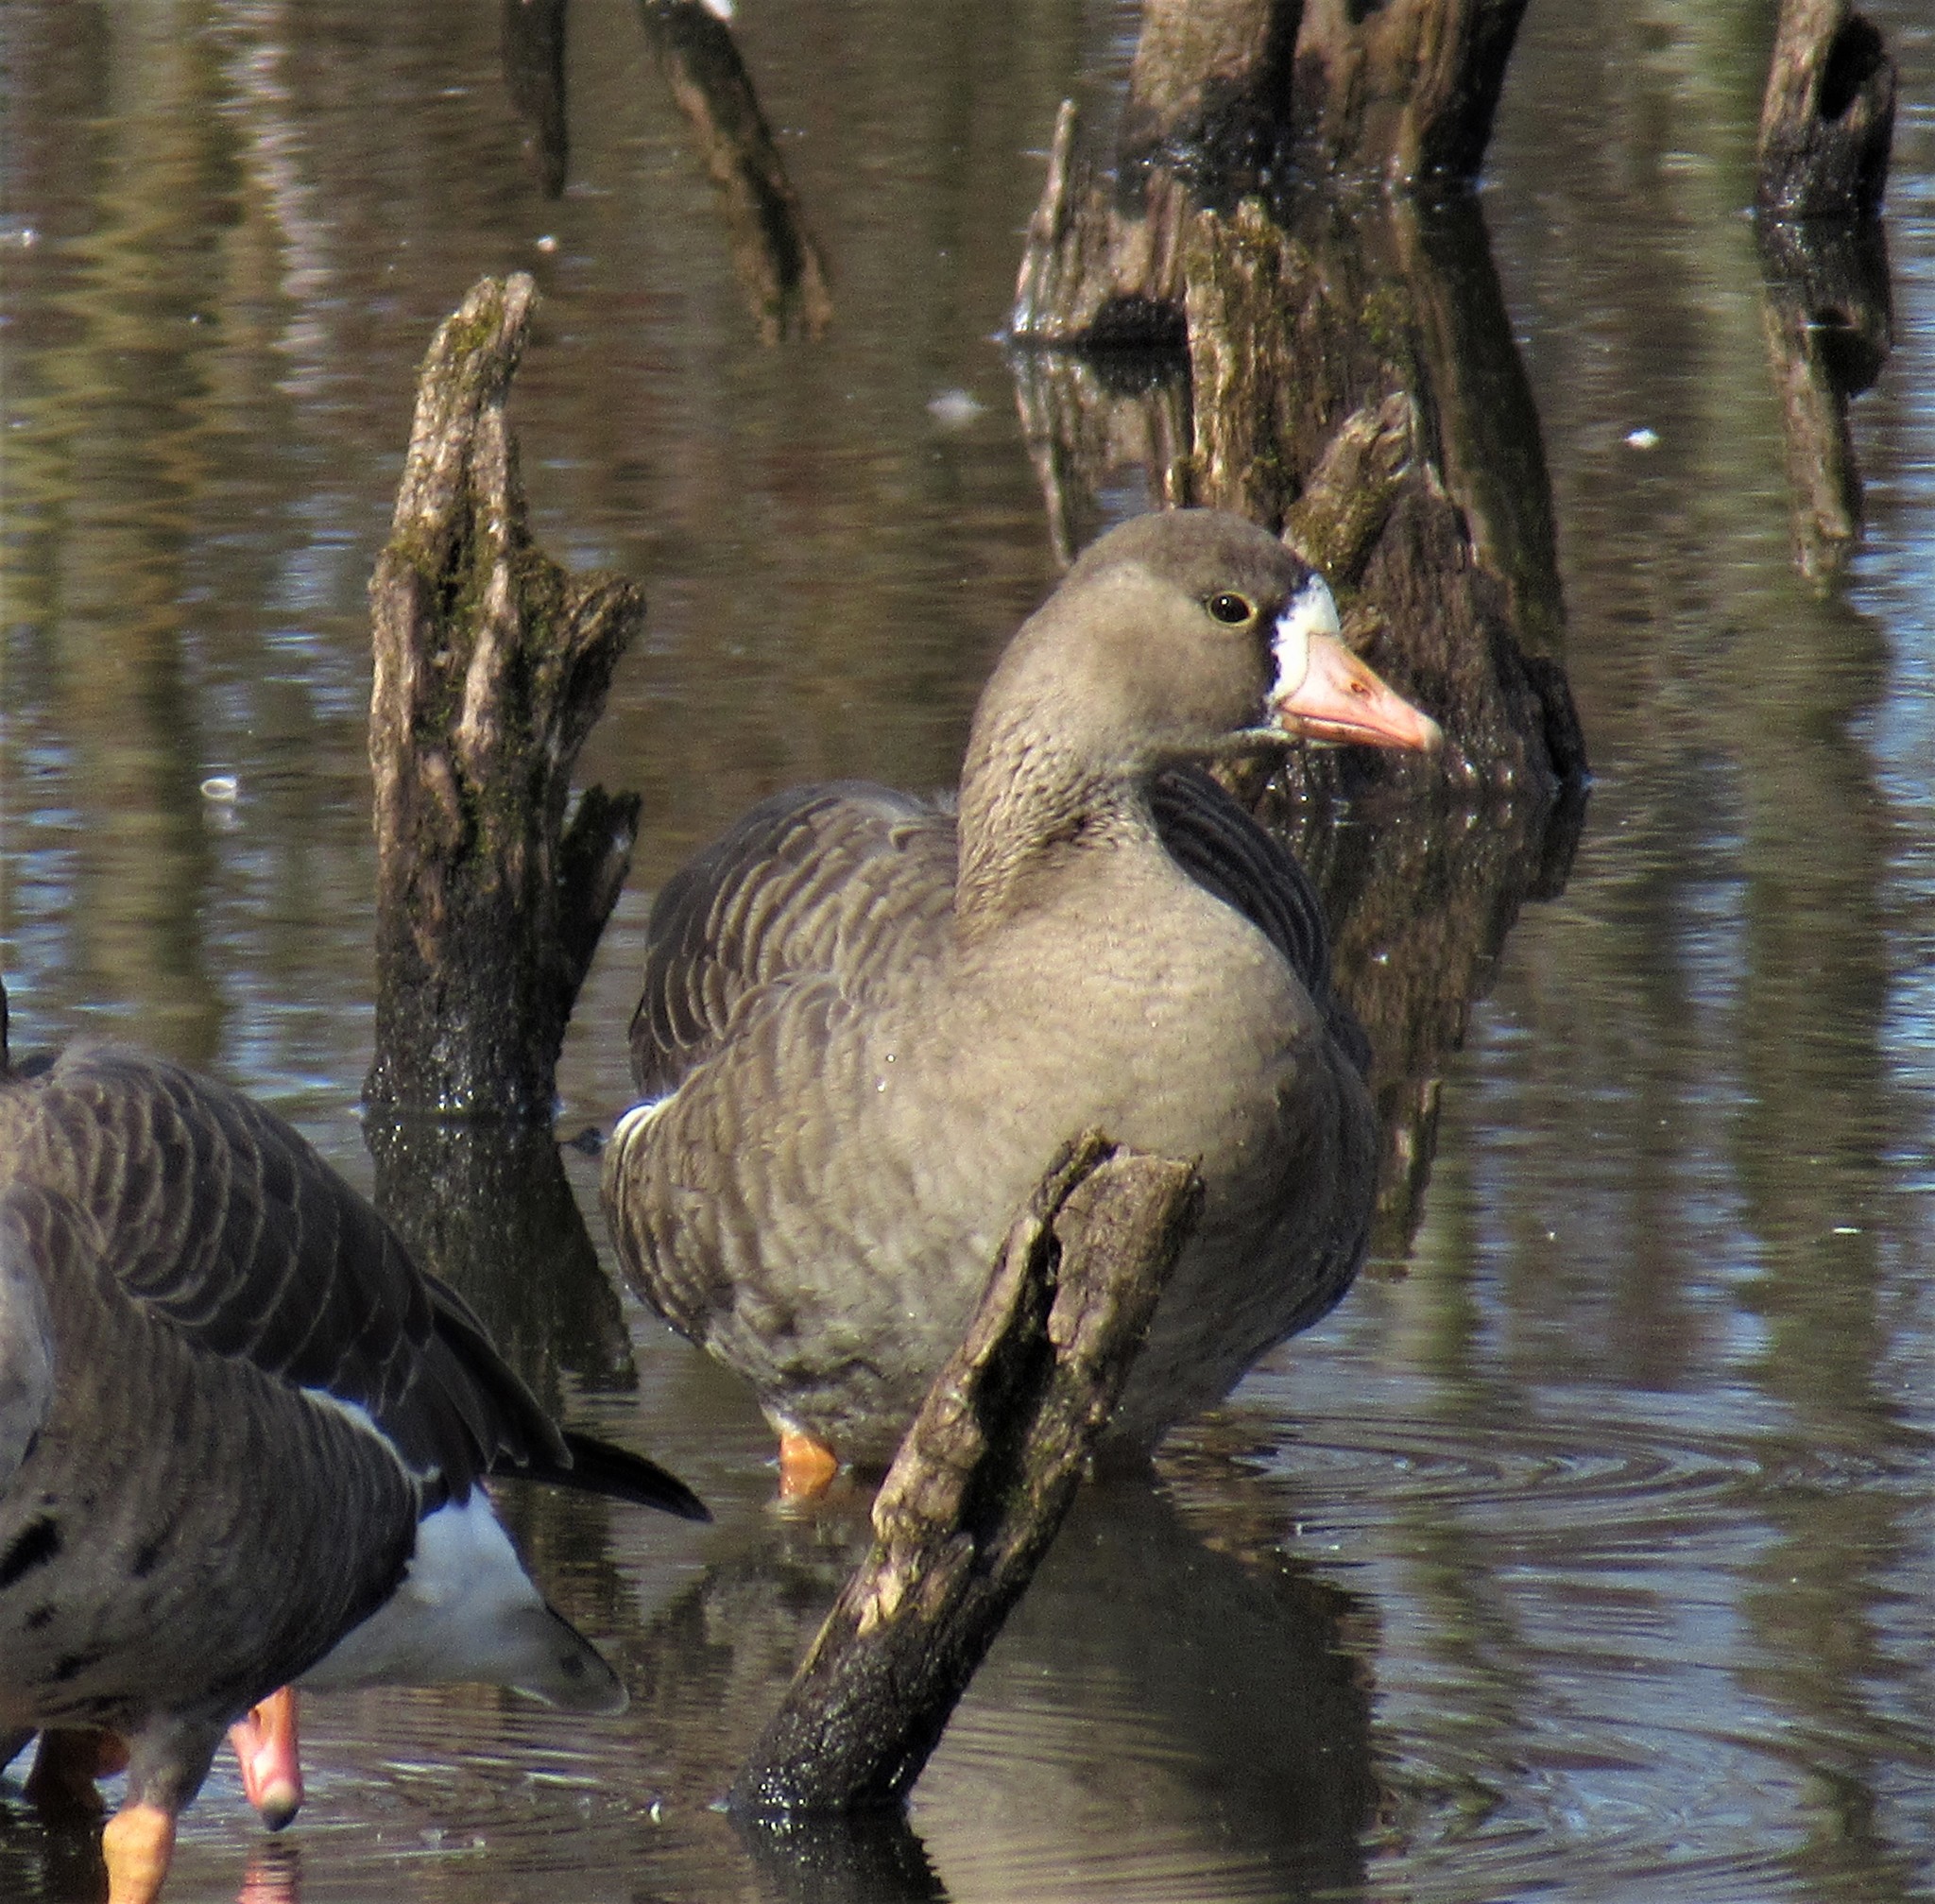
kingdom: Animalia
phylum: Chordata
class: Aves
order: Anseriformes
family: Anatidae
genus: Anser
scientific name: Anser albifrons
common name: Greater white-fronted goose
